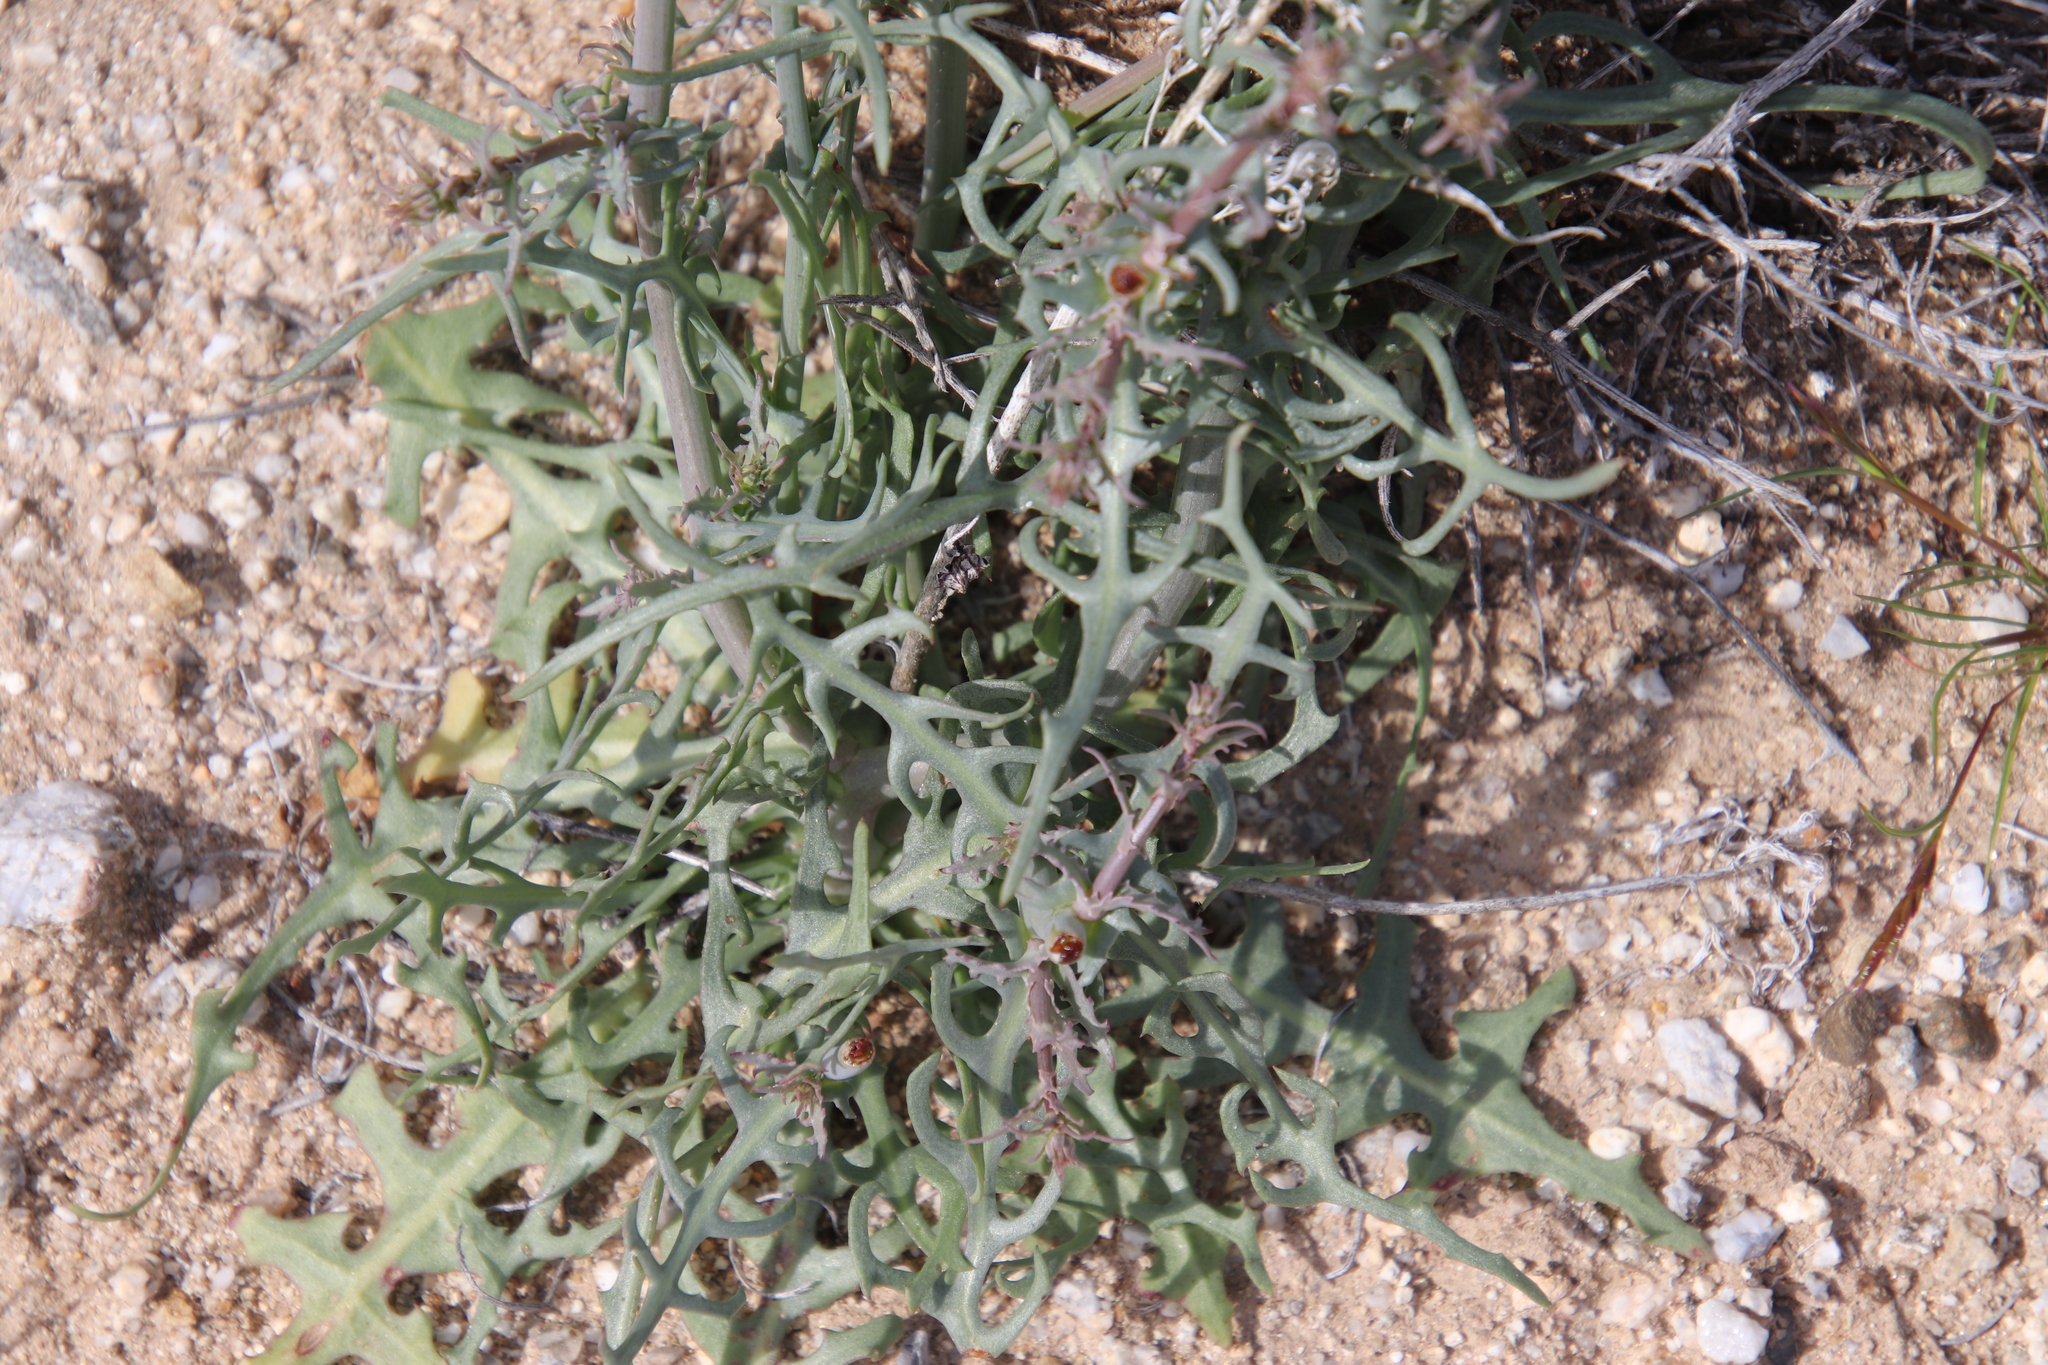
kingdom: Plantae
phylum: Tracheophyta
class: Magnoliopsida
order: Asterales
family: Asteraceae
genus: Rafinesquia
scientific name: Rafinesquia neomexicana
